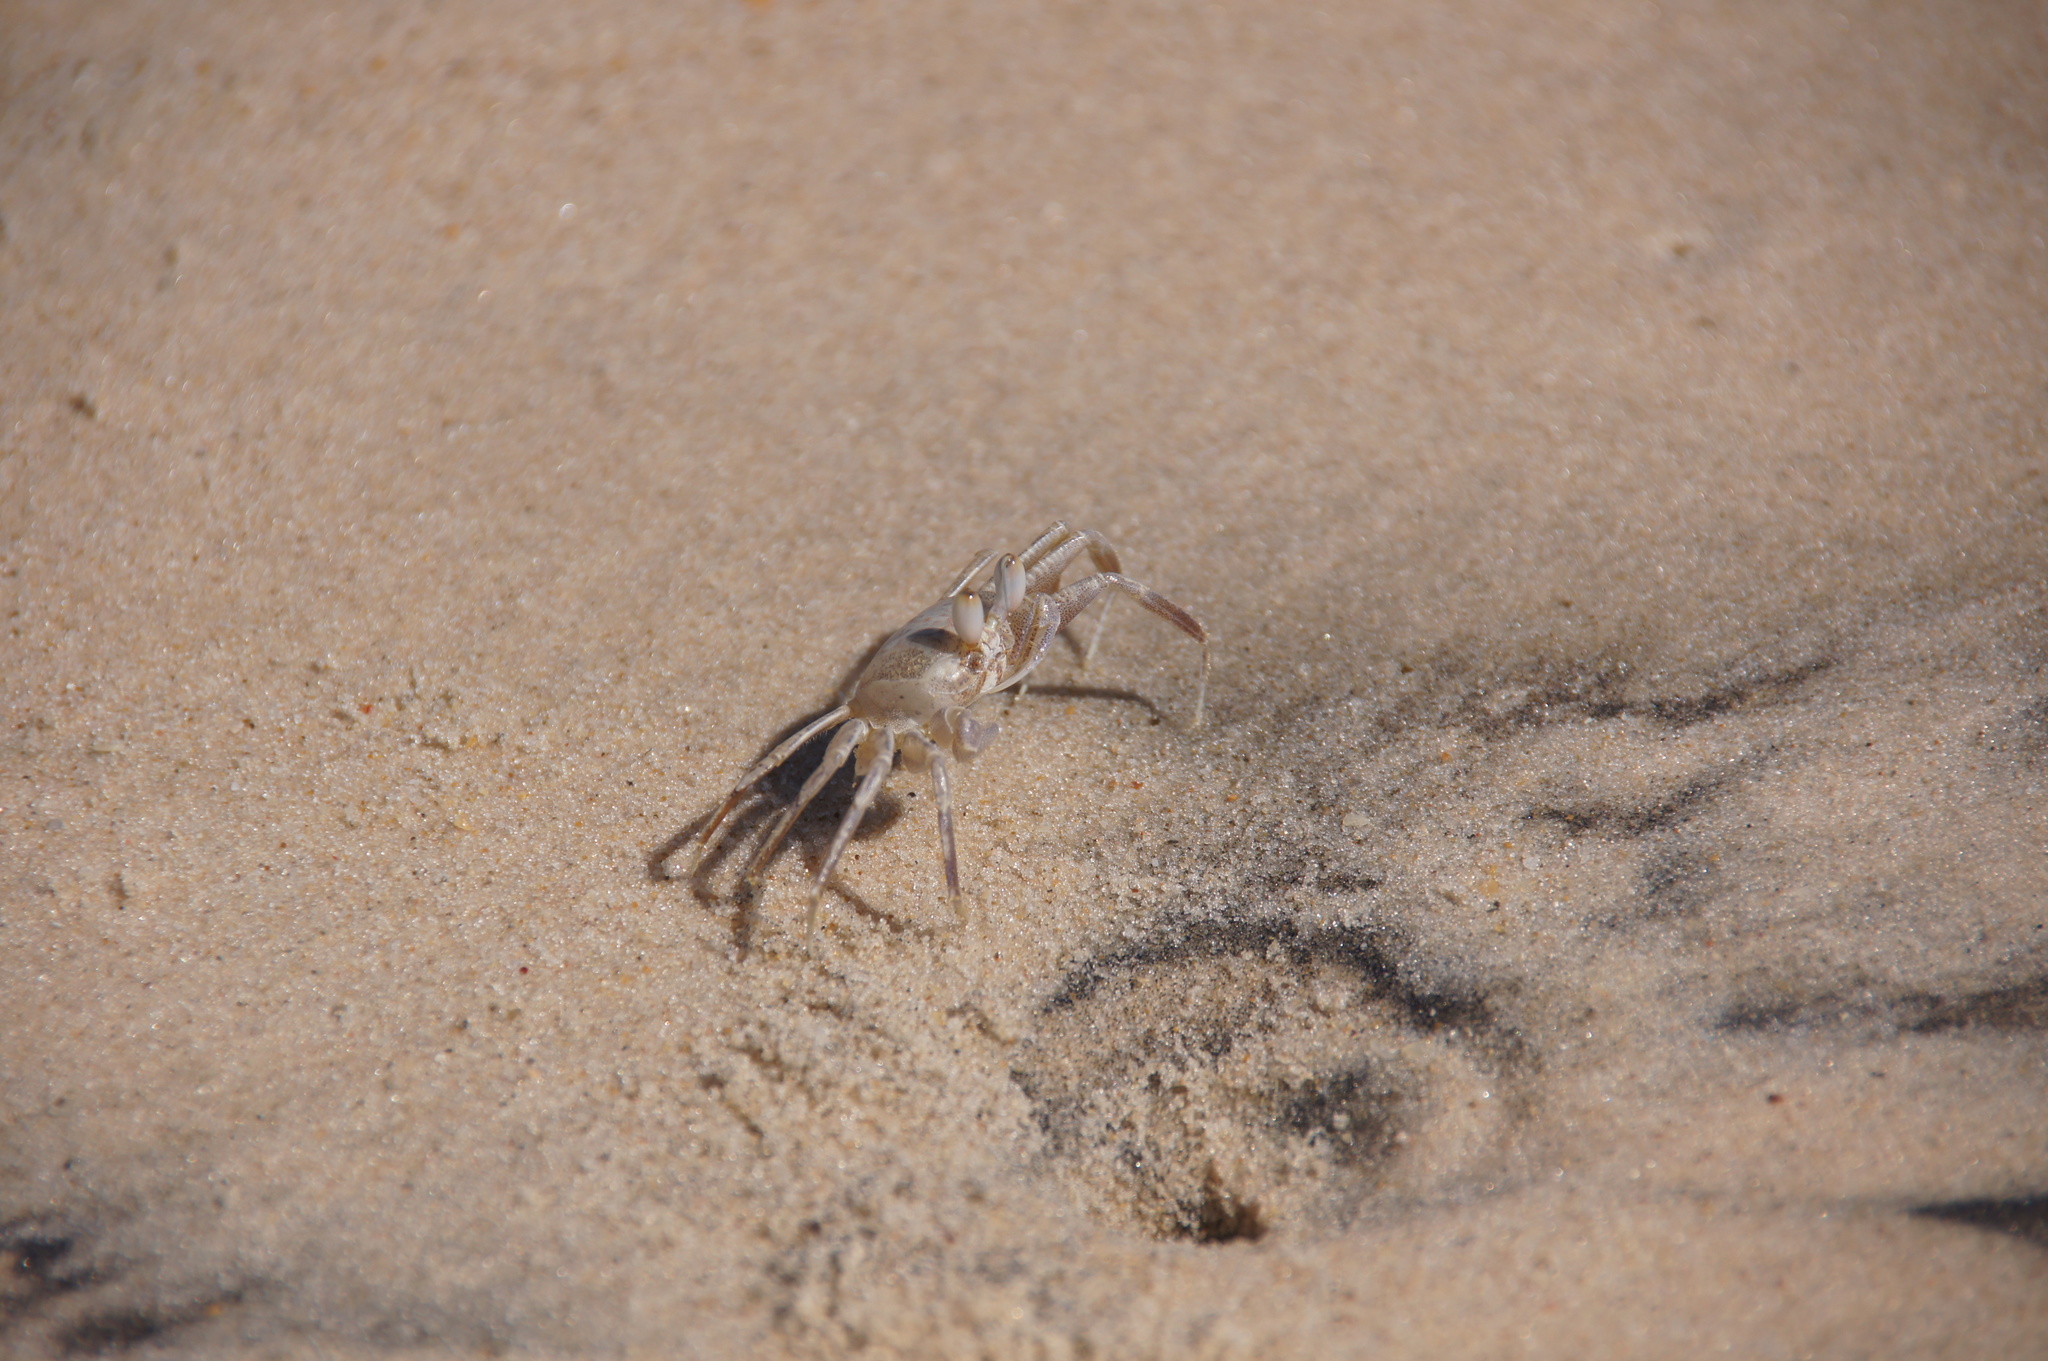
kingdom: Animalia
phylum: Arthropoda
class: Malacostraca
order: Decapoda
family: Ocypodidae
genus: Ocypode
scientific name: Ocypode africana
